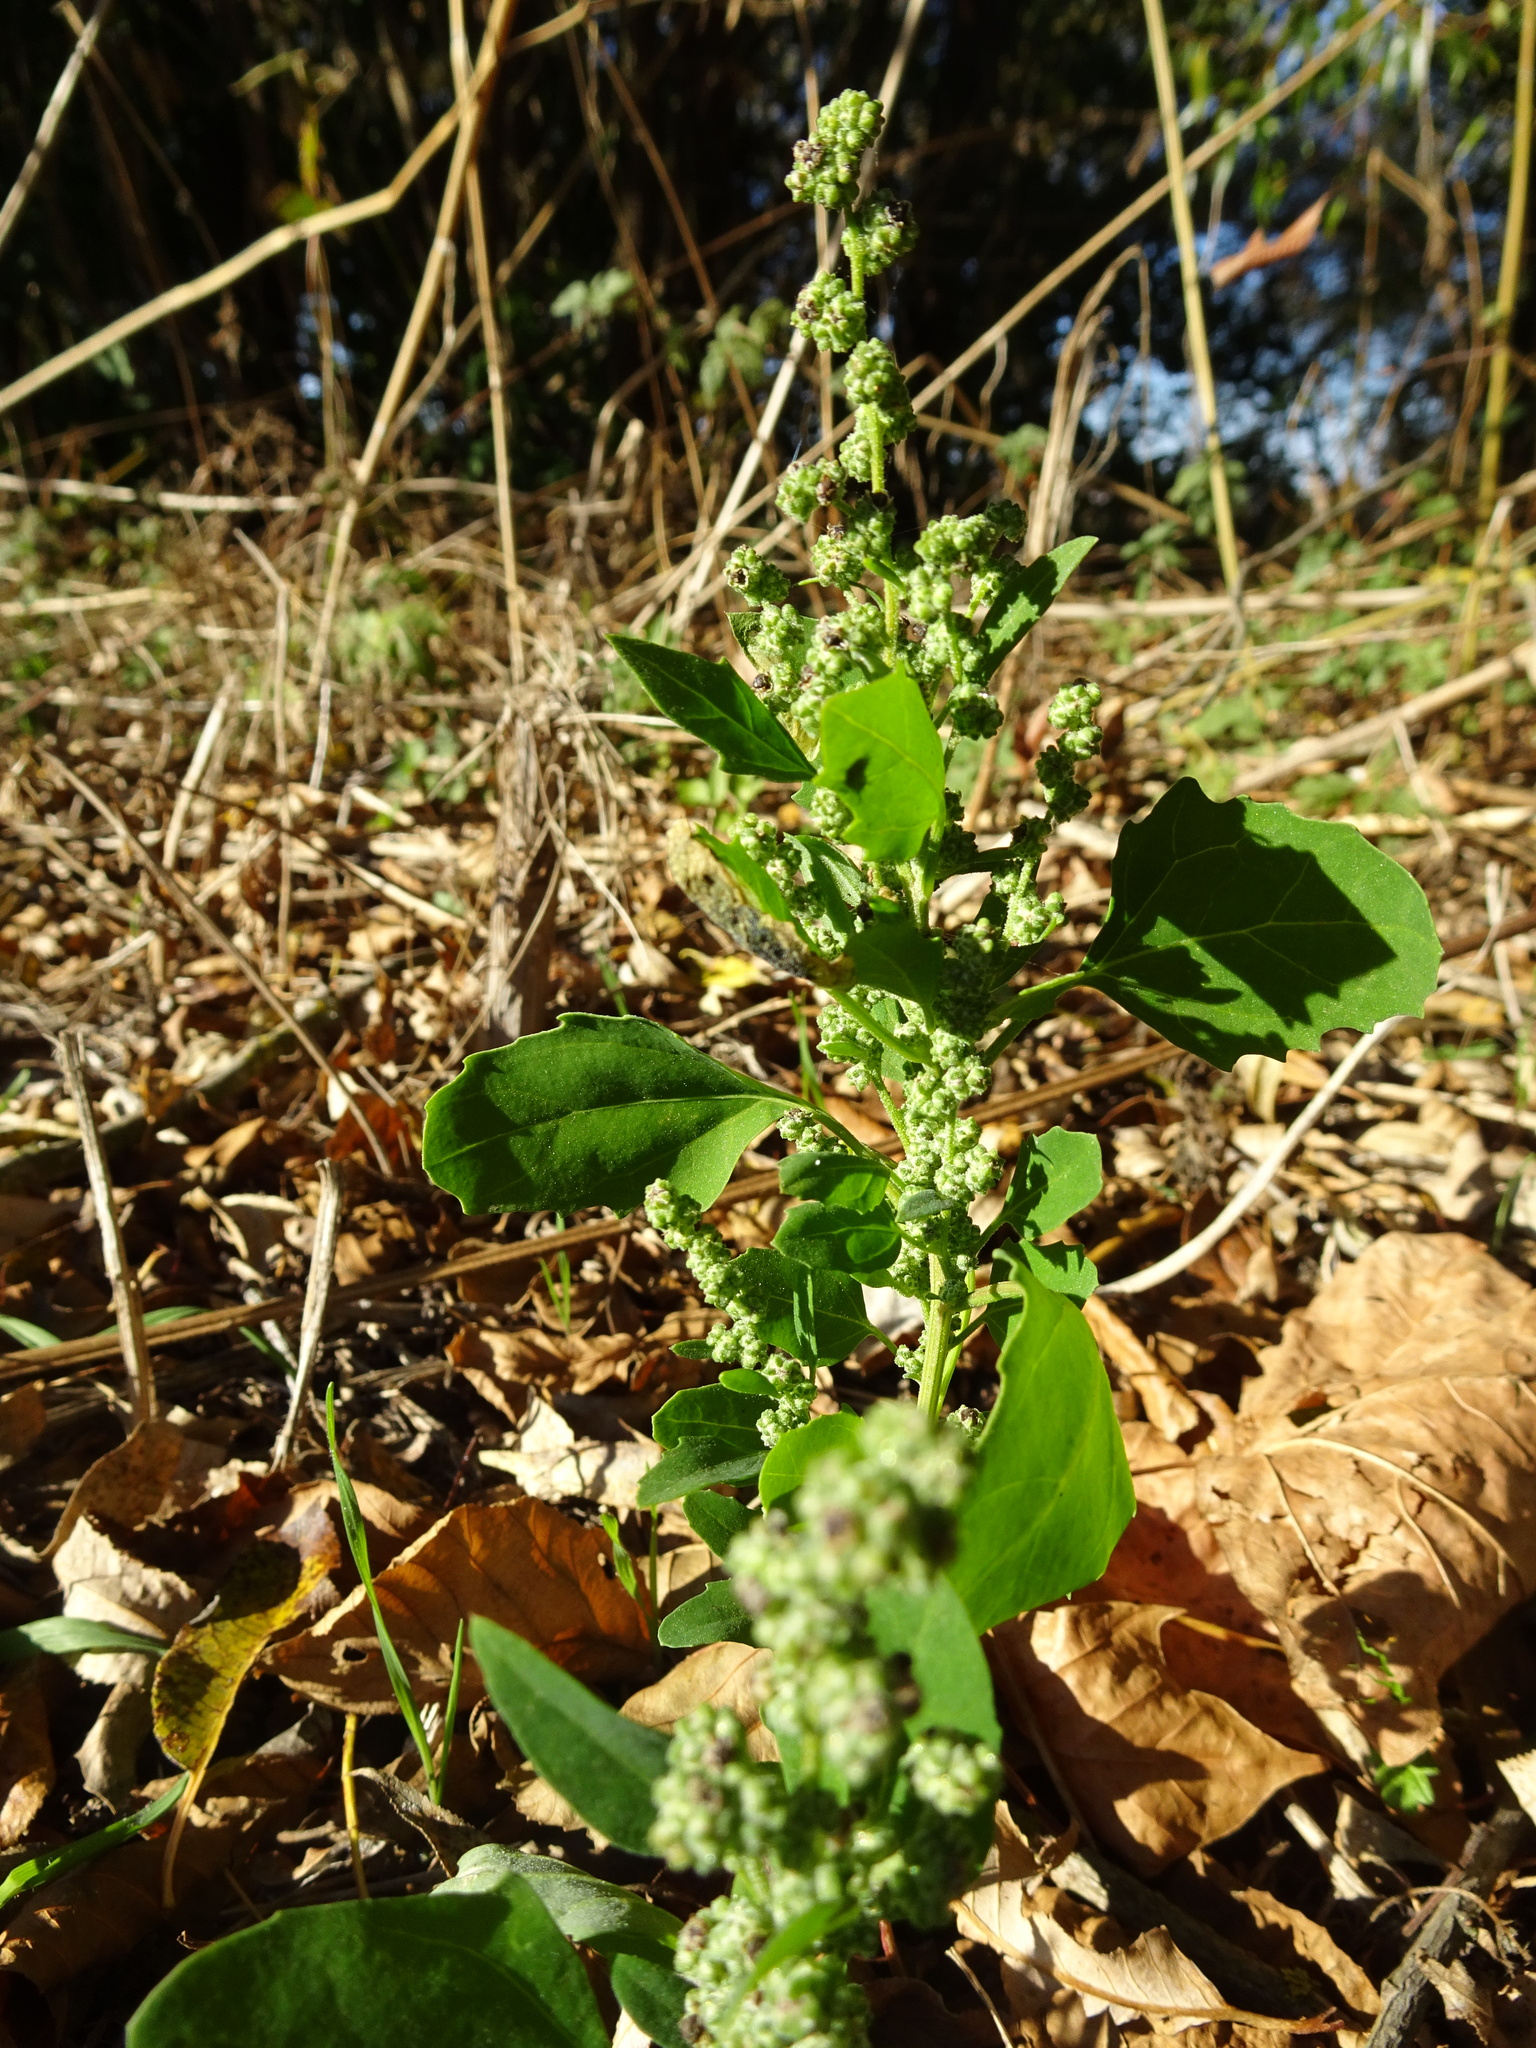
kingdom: Plantae
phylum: Tracheophyta
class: Magnoliopsida
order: Caryophyllales
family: Amaranthaceae
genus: Chenopodium
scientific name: Chenopodium album
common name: Fat-hen
